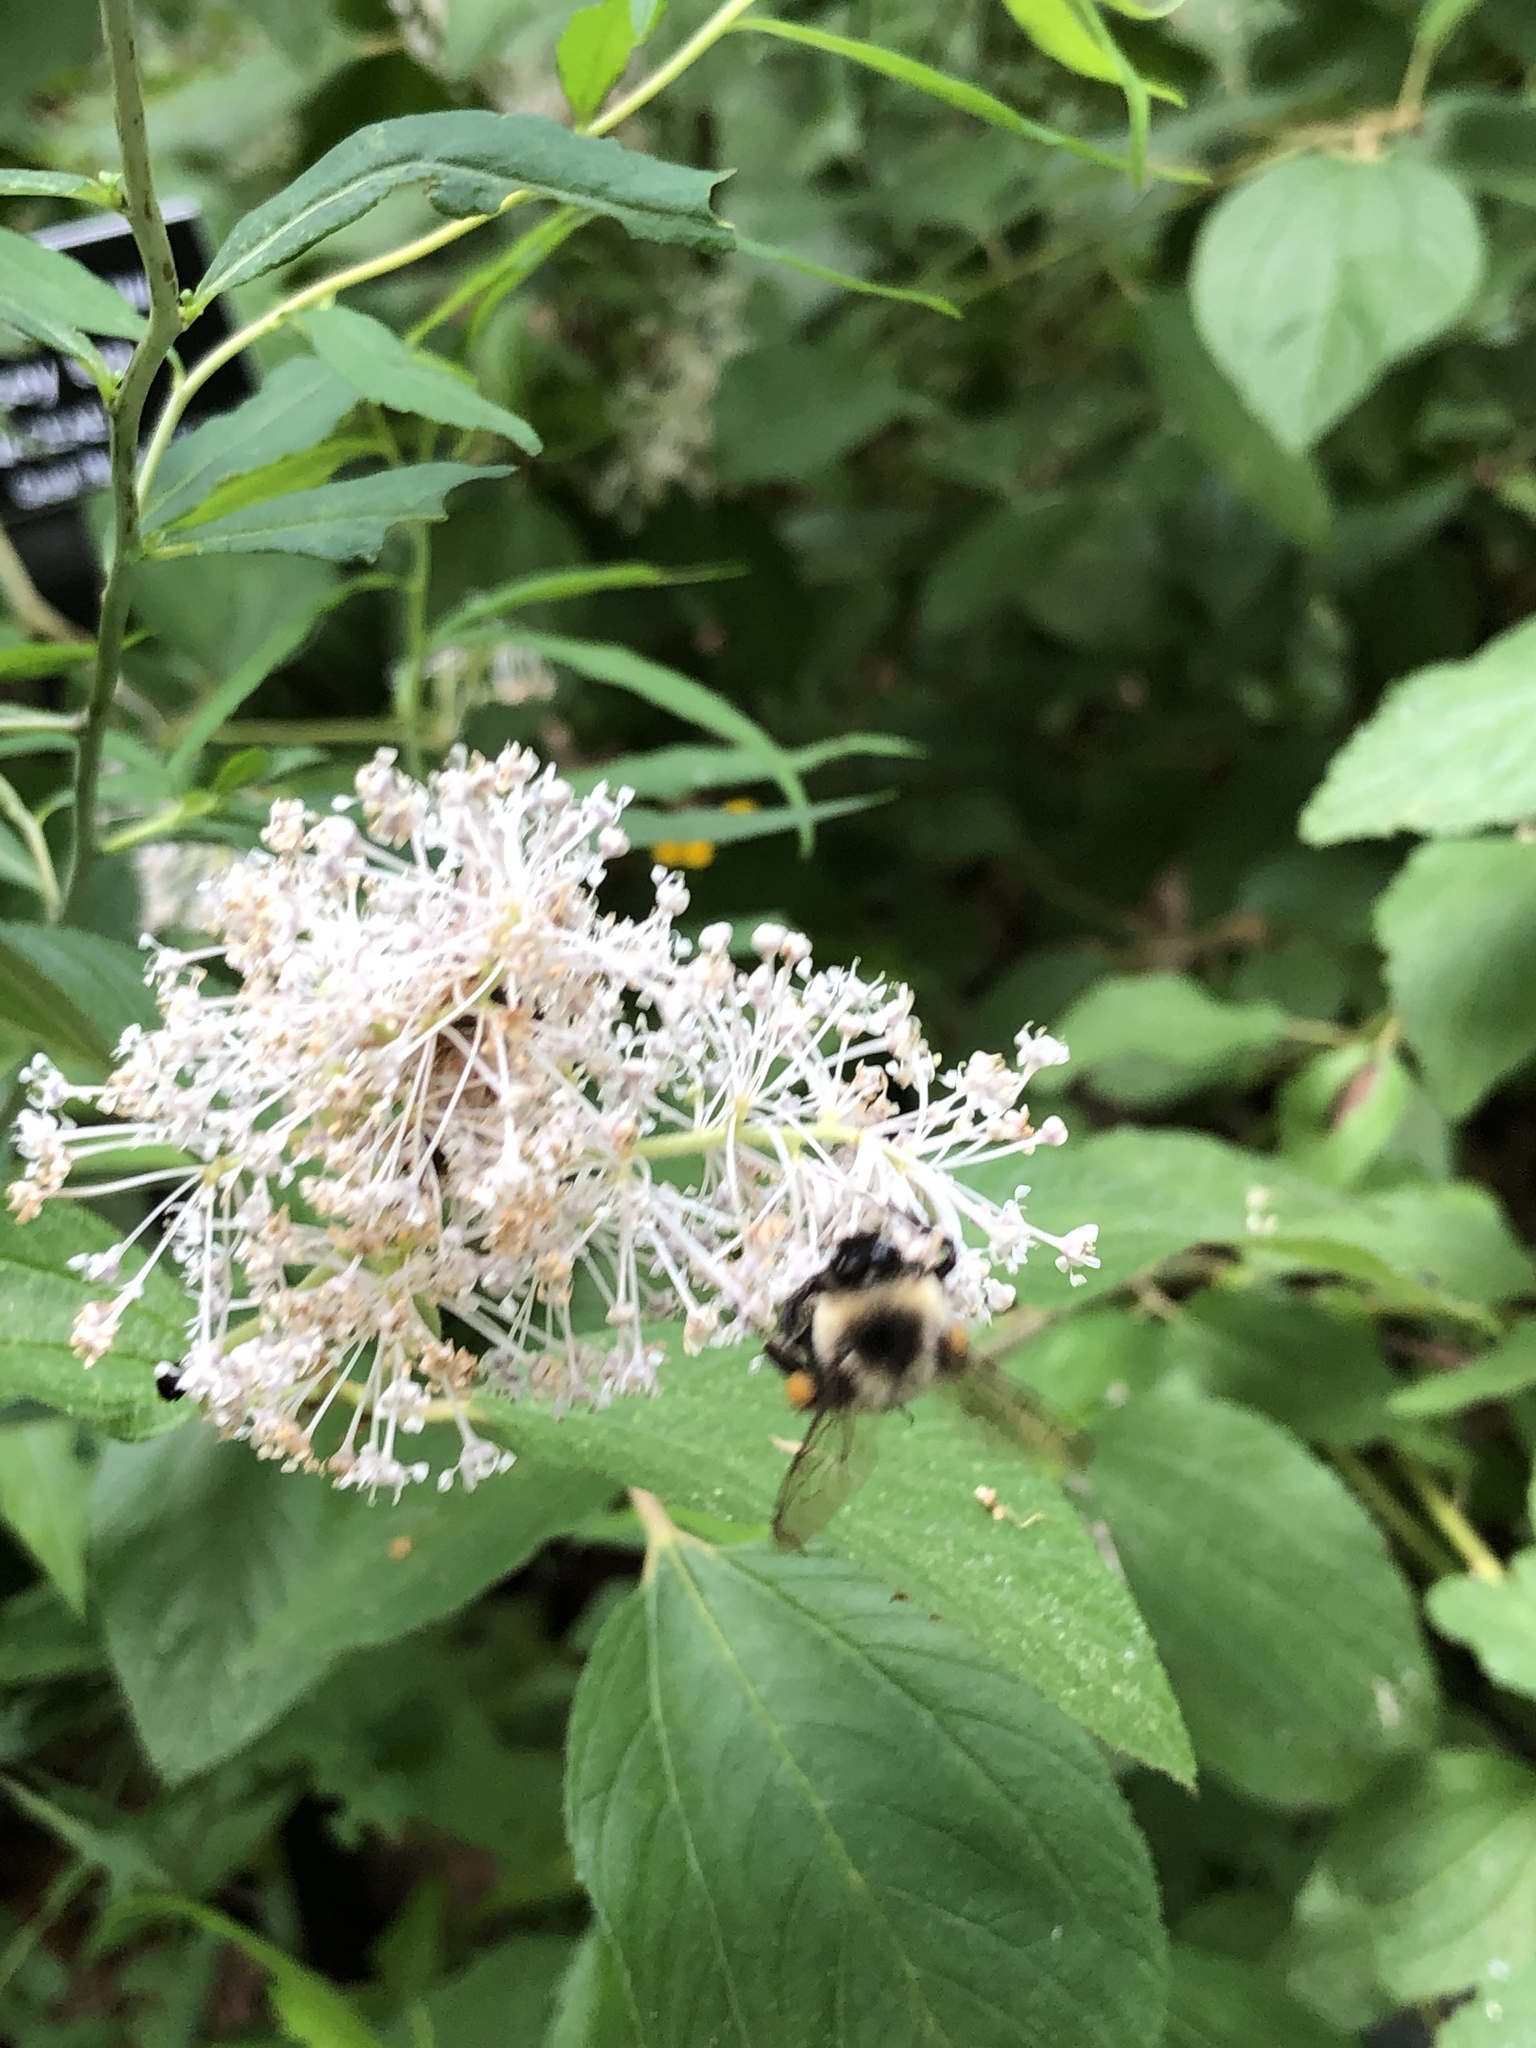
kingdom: Animalia
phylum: Arthropoda
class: Insecta
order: Hymenoptera
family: Apidae
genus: Bombus
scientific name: Bombus impatiens
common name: Common eastern bumble bee
